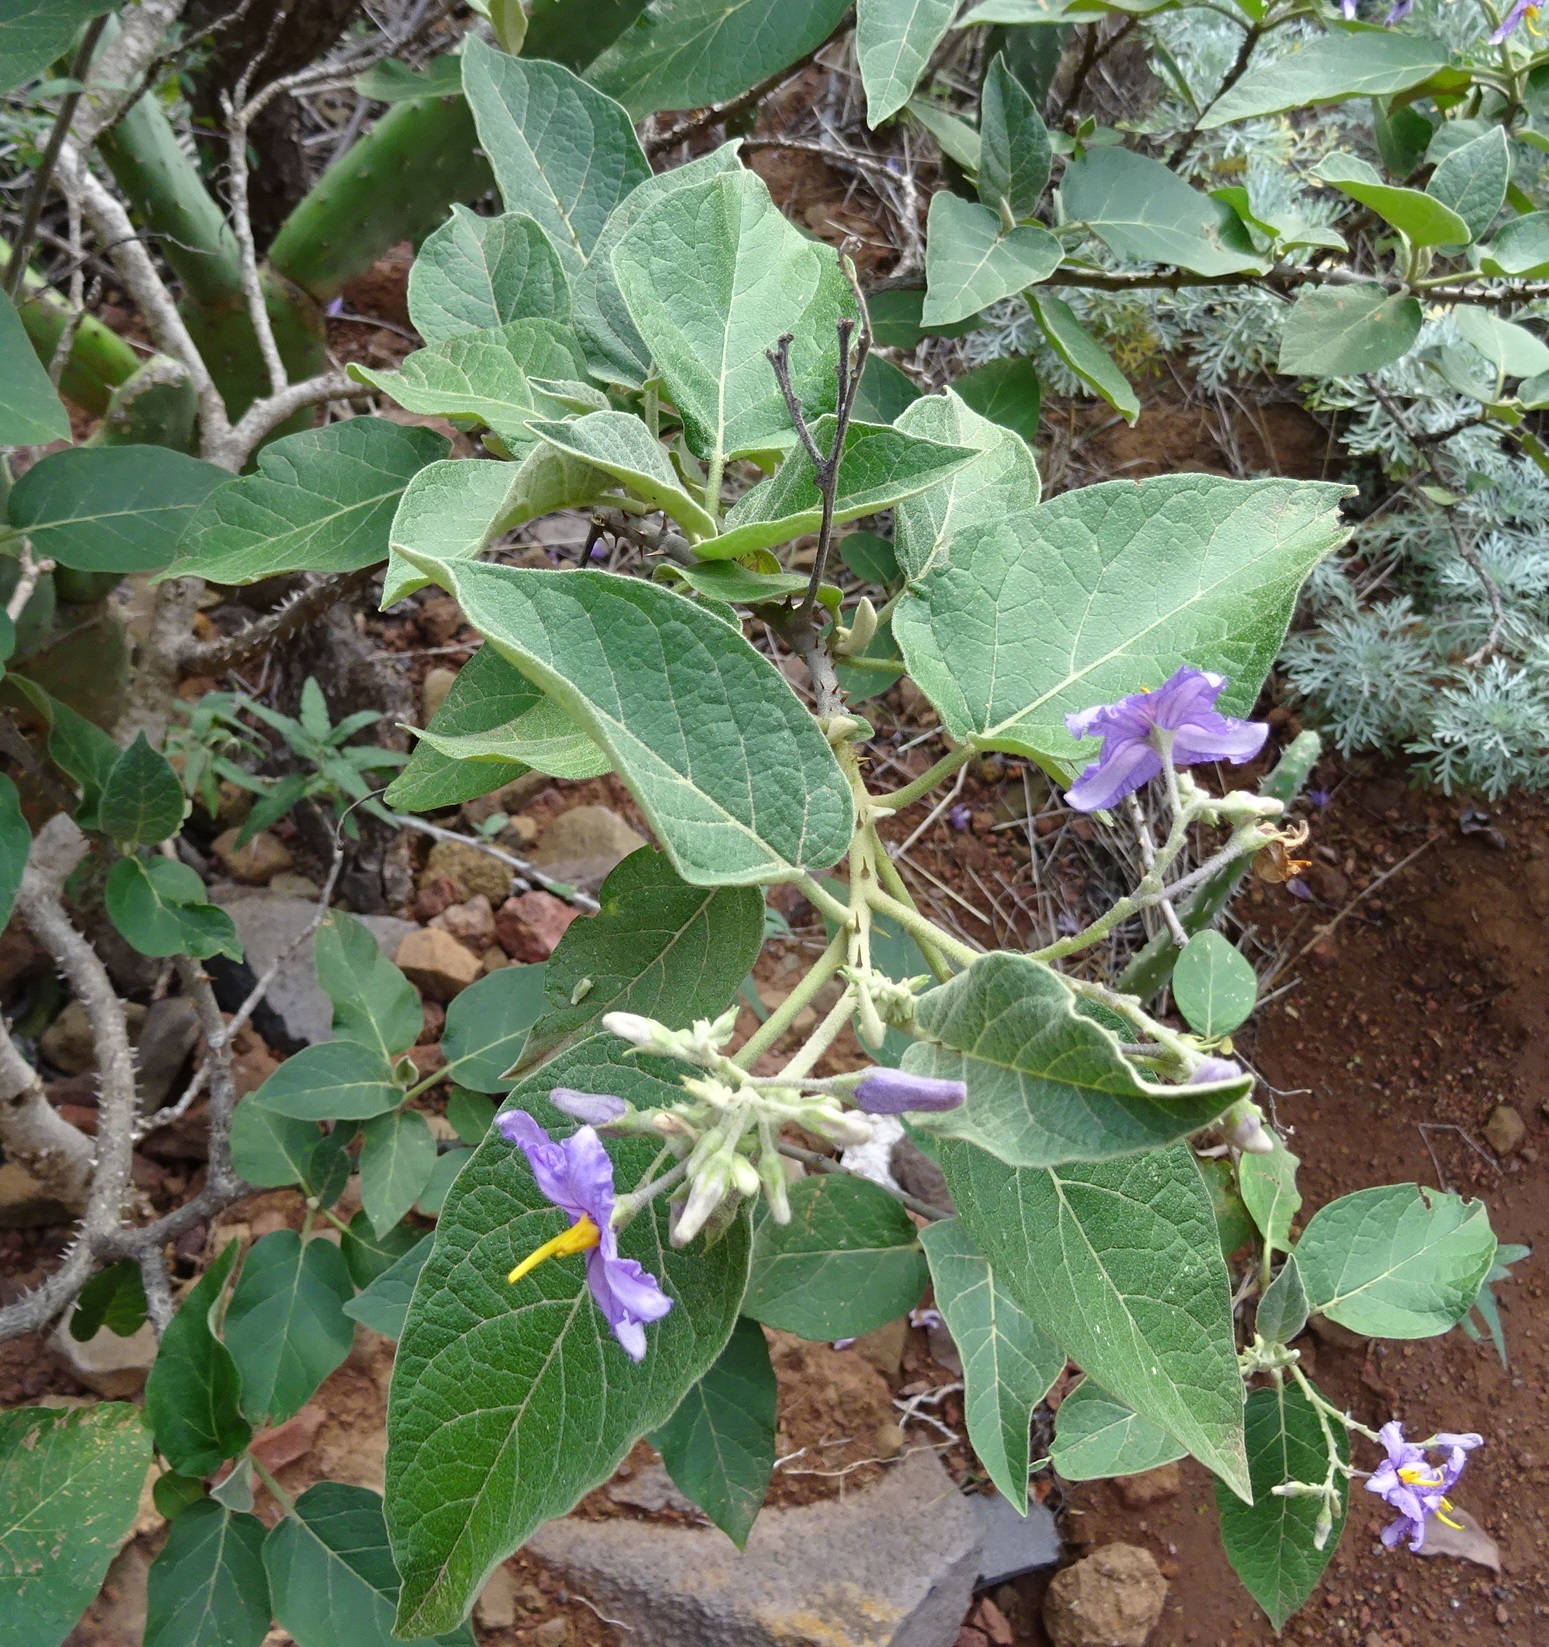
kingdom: Plantae
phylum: Tracheophyta
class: Magnoliopsida
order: Solanales
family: Solanaceae
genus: Solanum
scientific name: Solanum vespertilio
